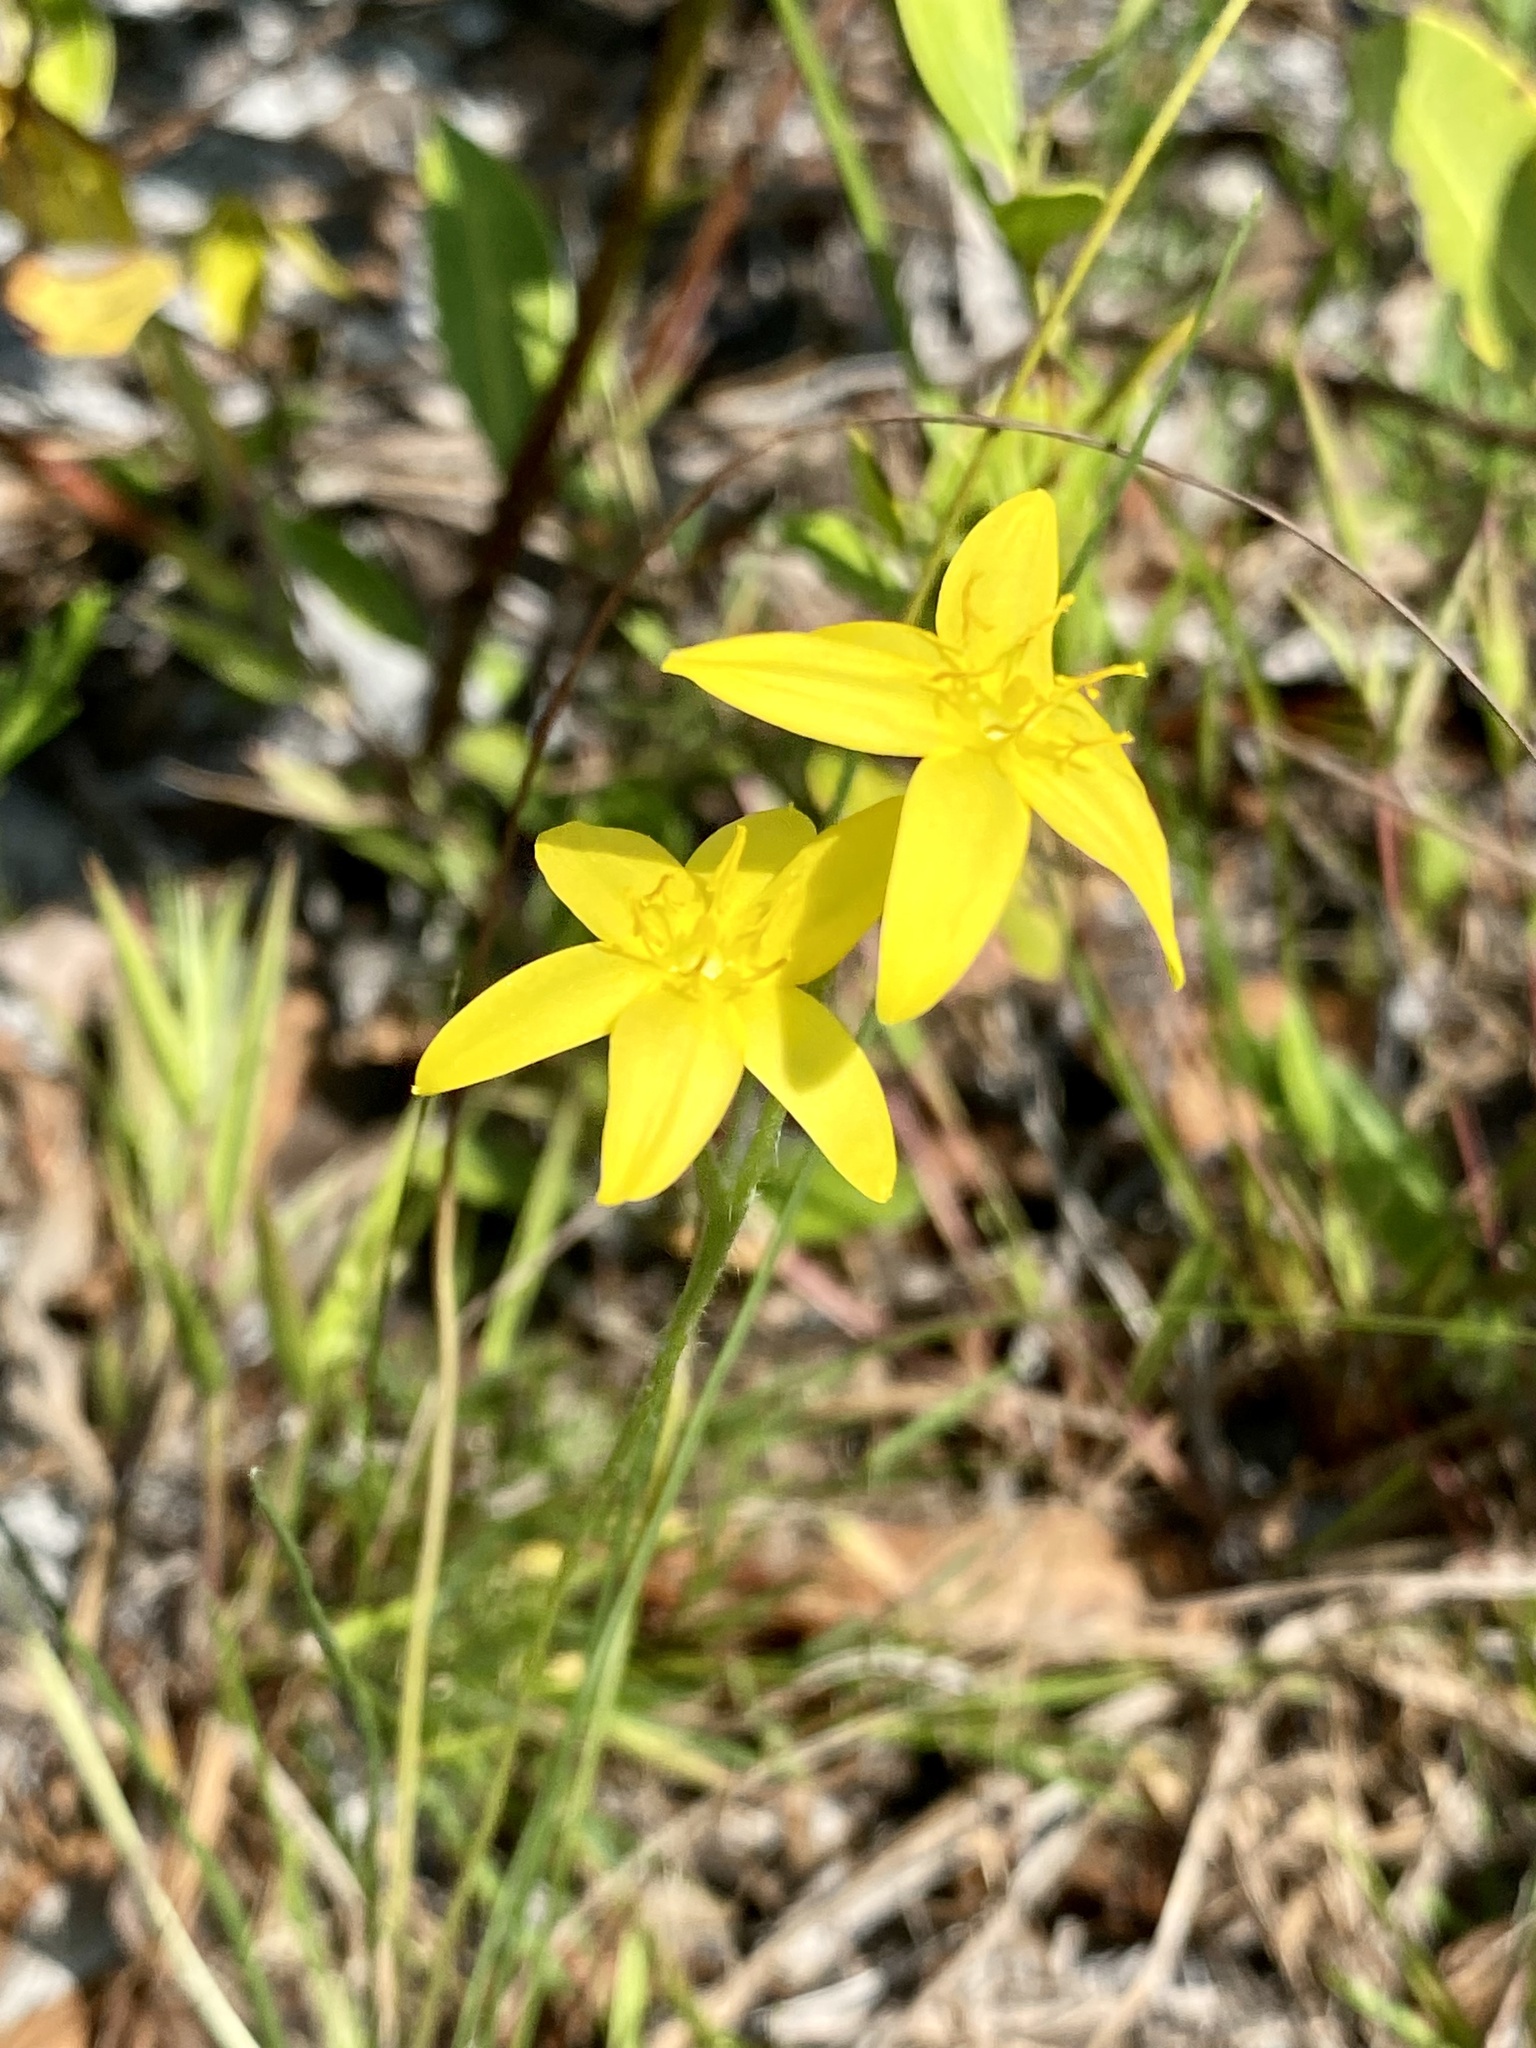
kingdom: Plantae
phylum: Tracheophyta
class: Liliopsida
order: Asparagales
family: Hypoxidaceae
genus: Hypoxis
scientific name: Hypoxis juncea
